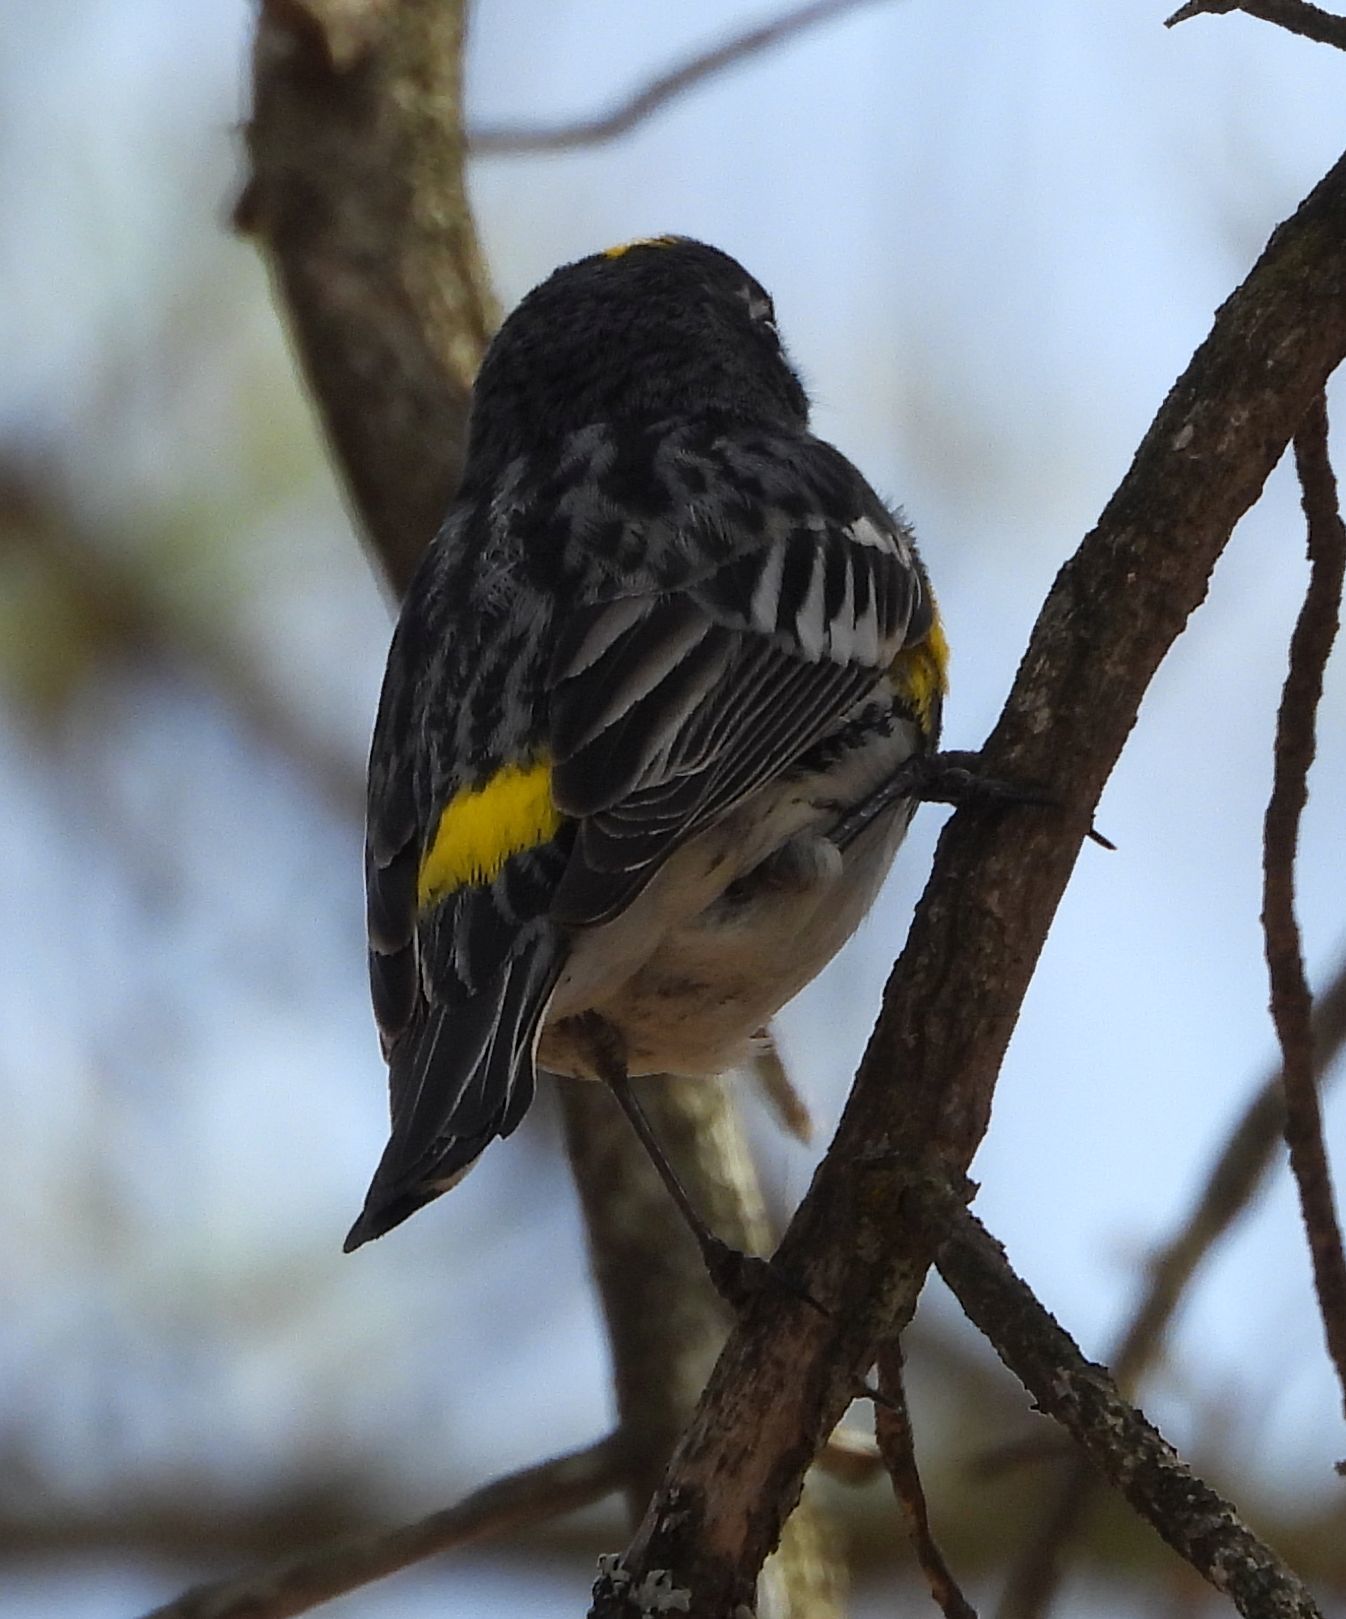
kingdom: Animalia
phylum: Chordata
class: Aves
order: Passeriformes
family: Parulidae
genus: Setophaga
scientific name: Setophaga coronata
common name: Myrtle warbler
